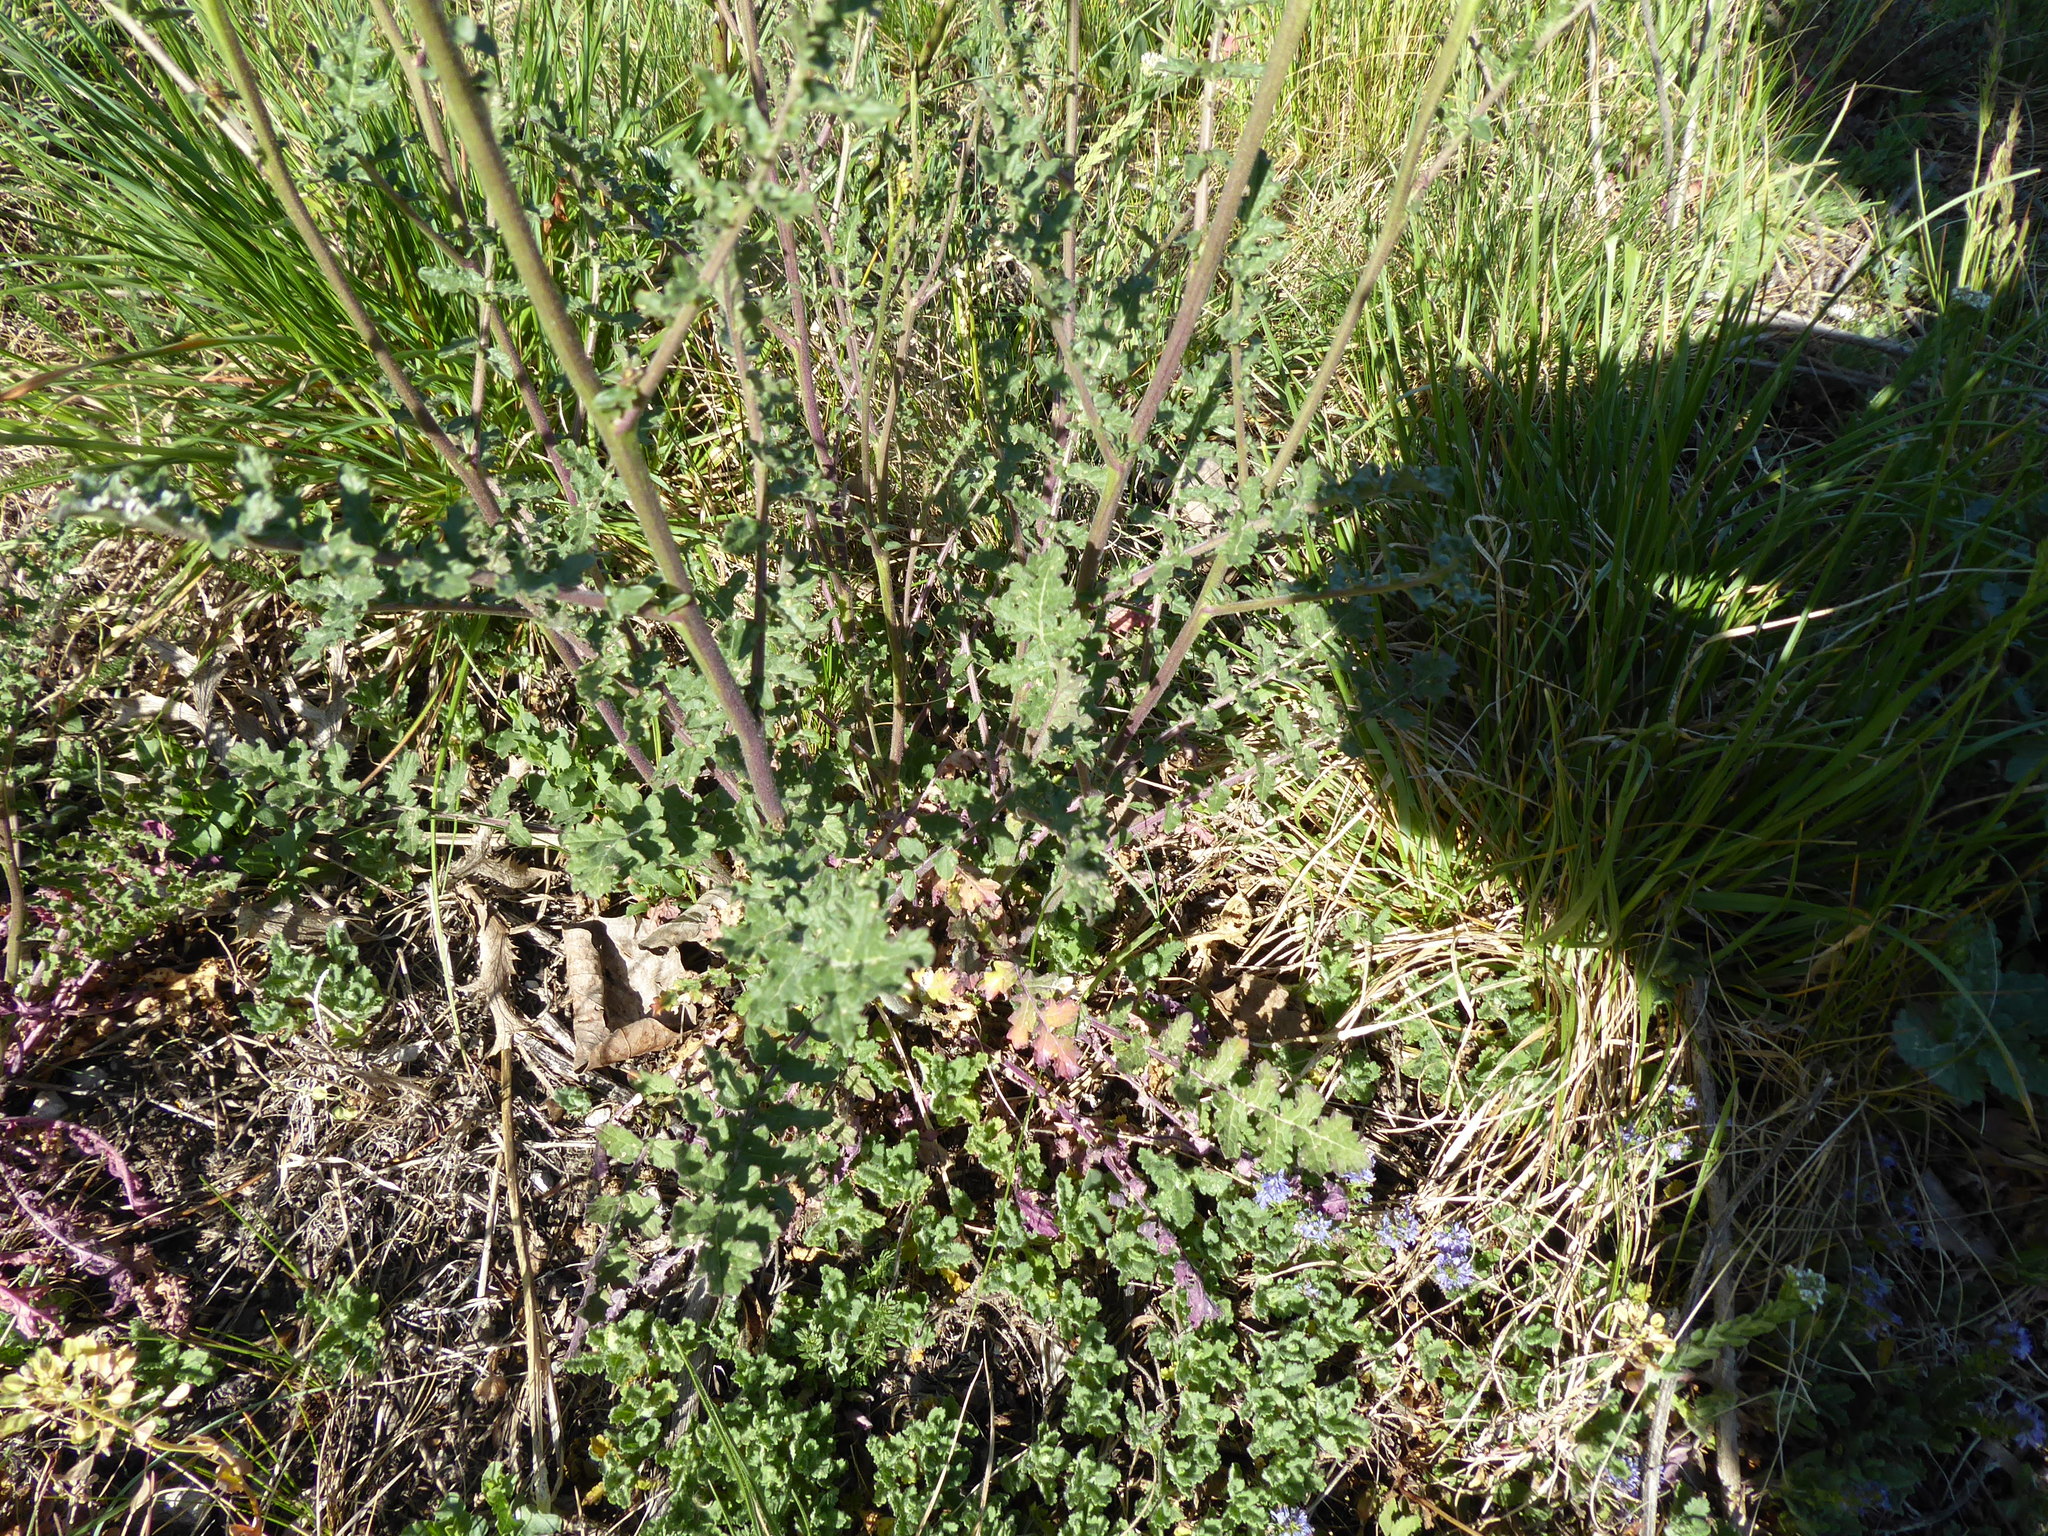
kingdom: Plantae
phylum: Tracheophyta
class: Magnoliopsida
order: Brassicales
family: Brassicaceae
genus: Erucastrum
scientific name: Erucastrum nasturtiifolium
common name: Watercress-leaf rocket
